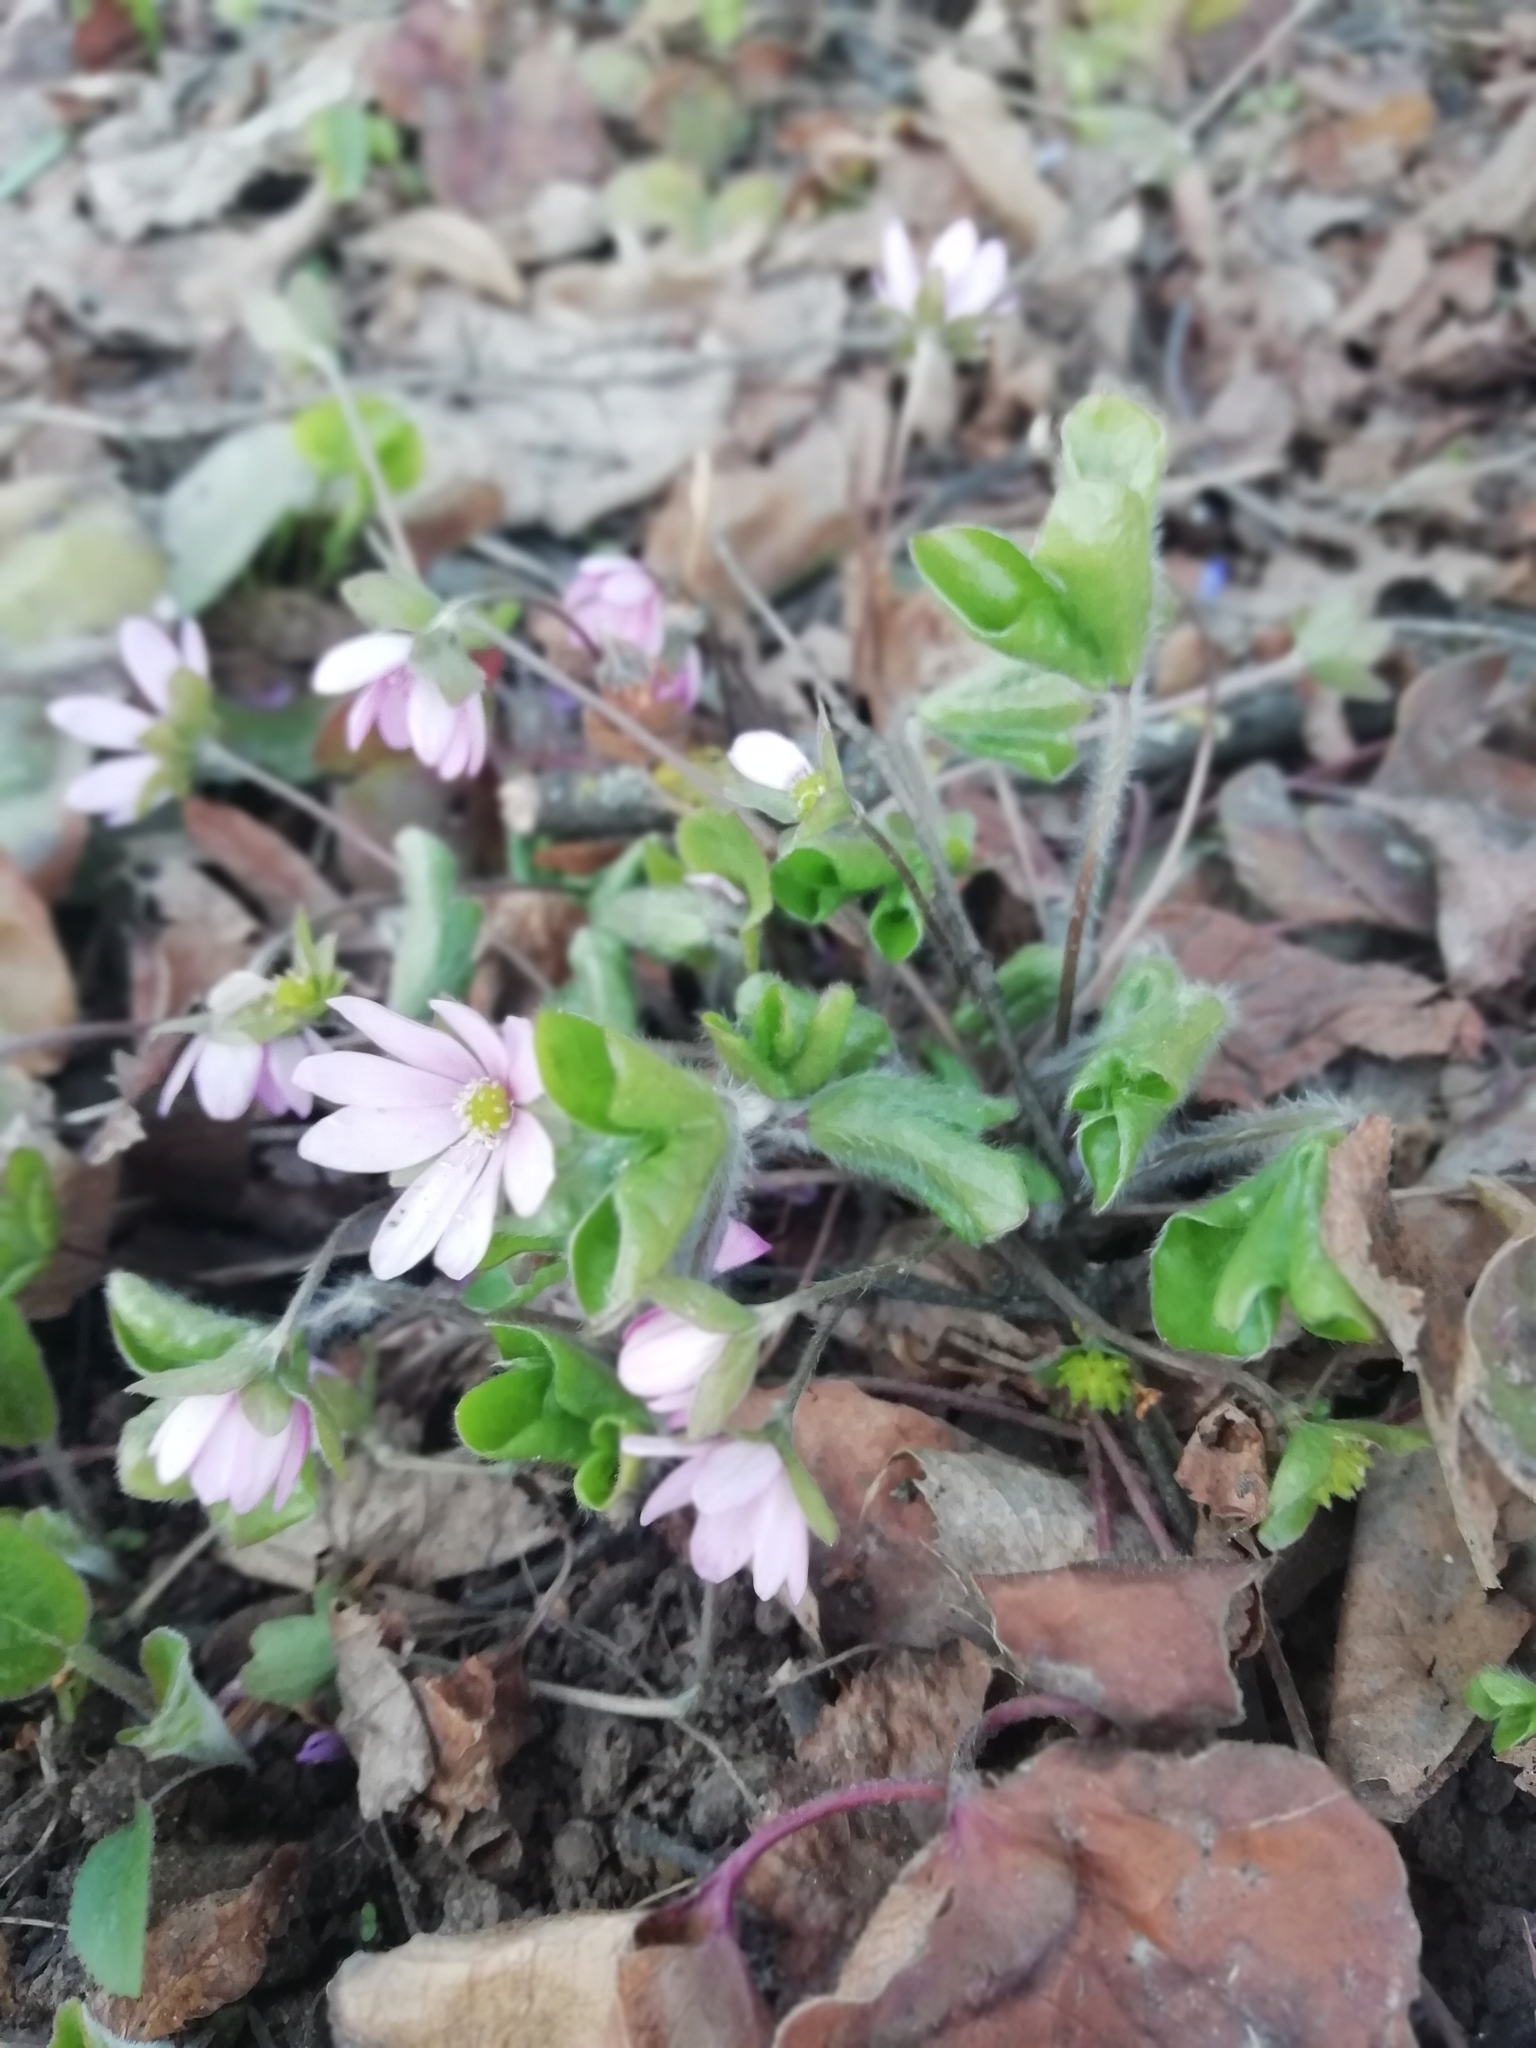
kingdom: Plantae
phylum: Tracheophyta
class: Magnoliopsida
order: Ranunculales
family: Ranunculaceae
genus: Hepatica
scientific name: Hepatica nobilis
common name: Liverleaf
